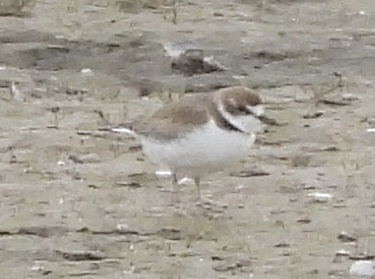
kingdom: Animalia
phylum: Chordata
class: Aves
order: Charadriiformes
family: Charadriidae
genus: Anarhynchus
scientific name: Anarhynchus
